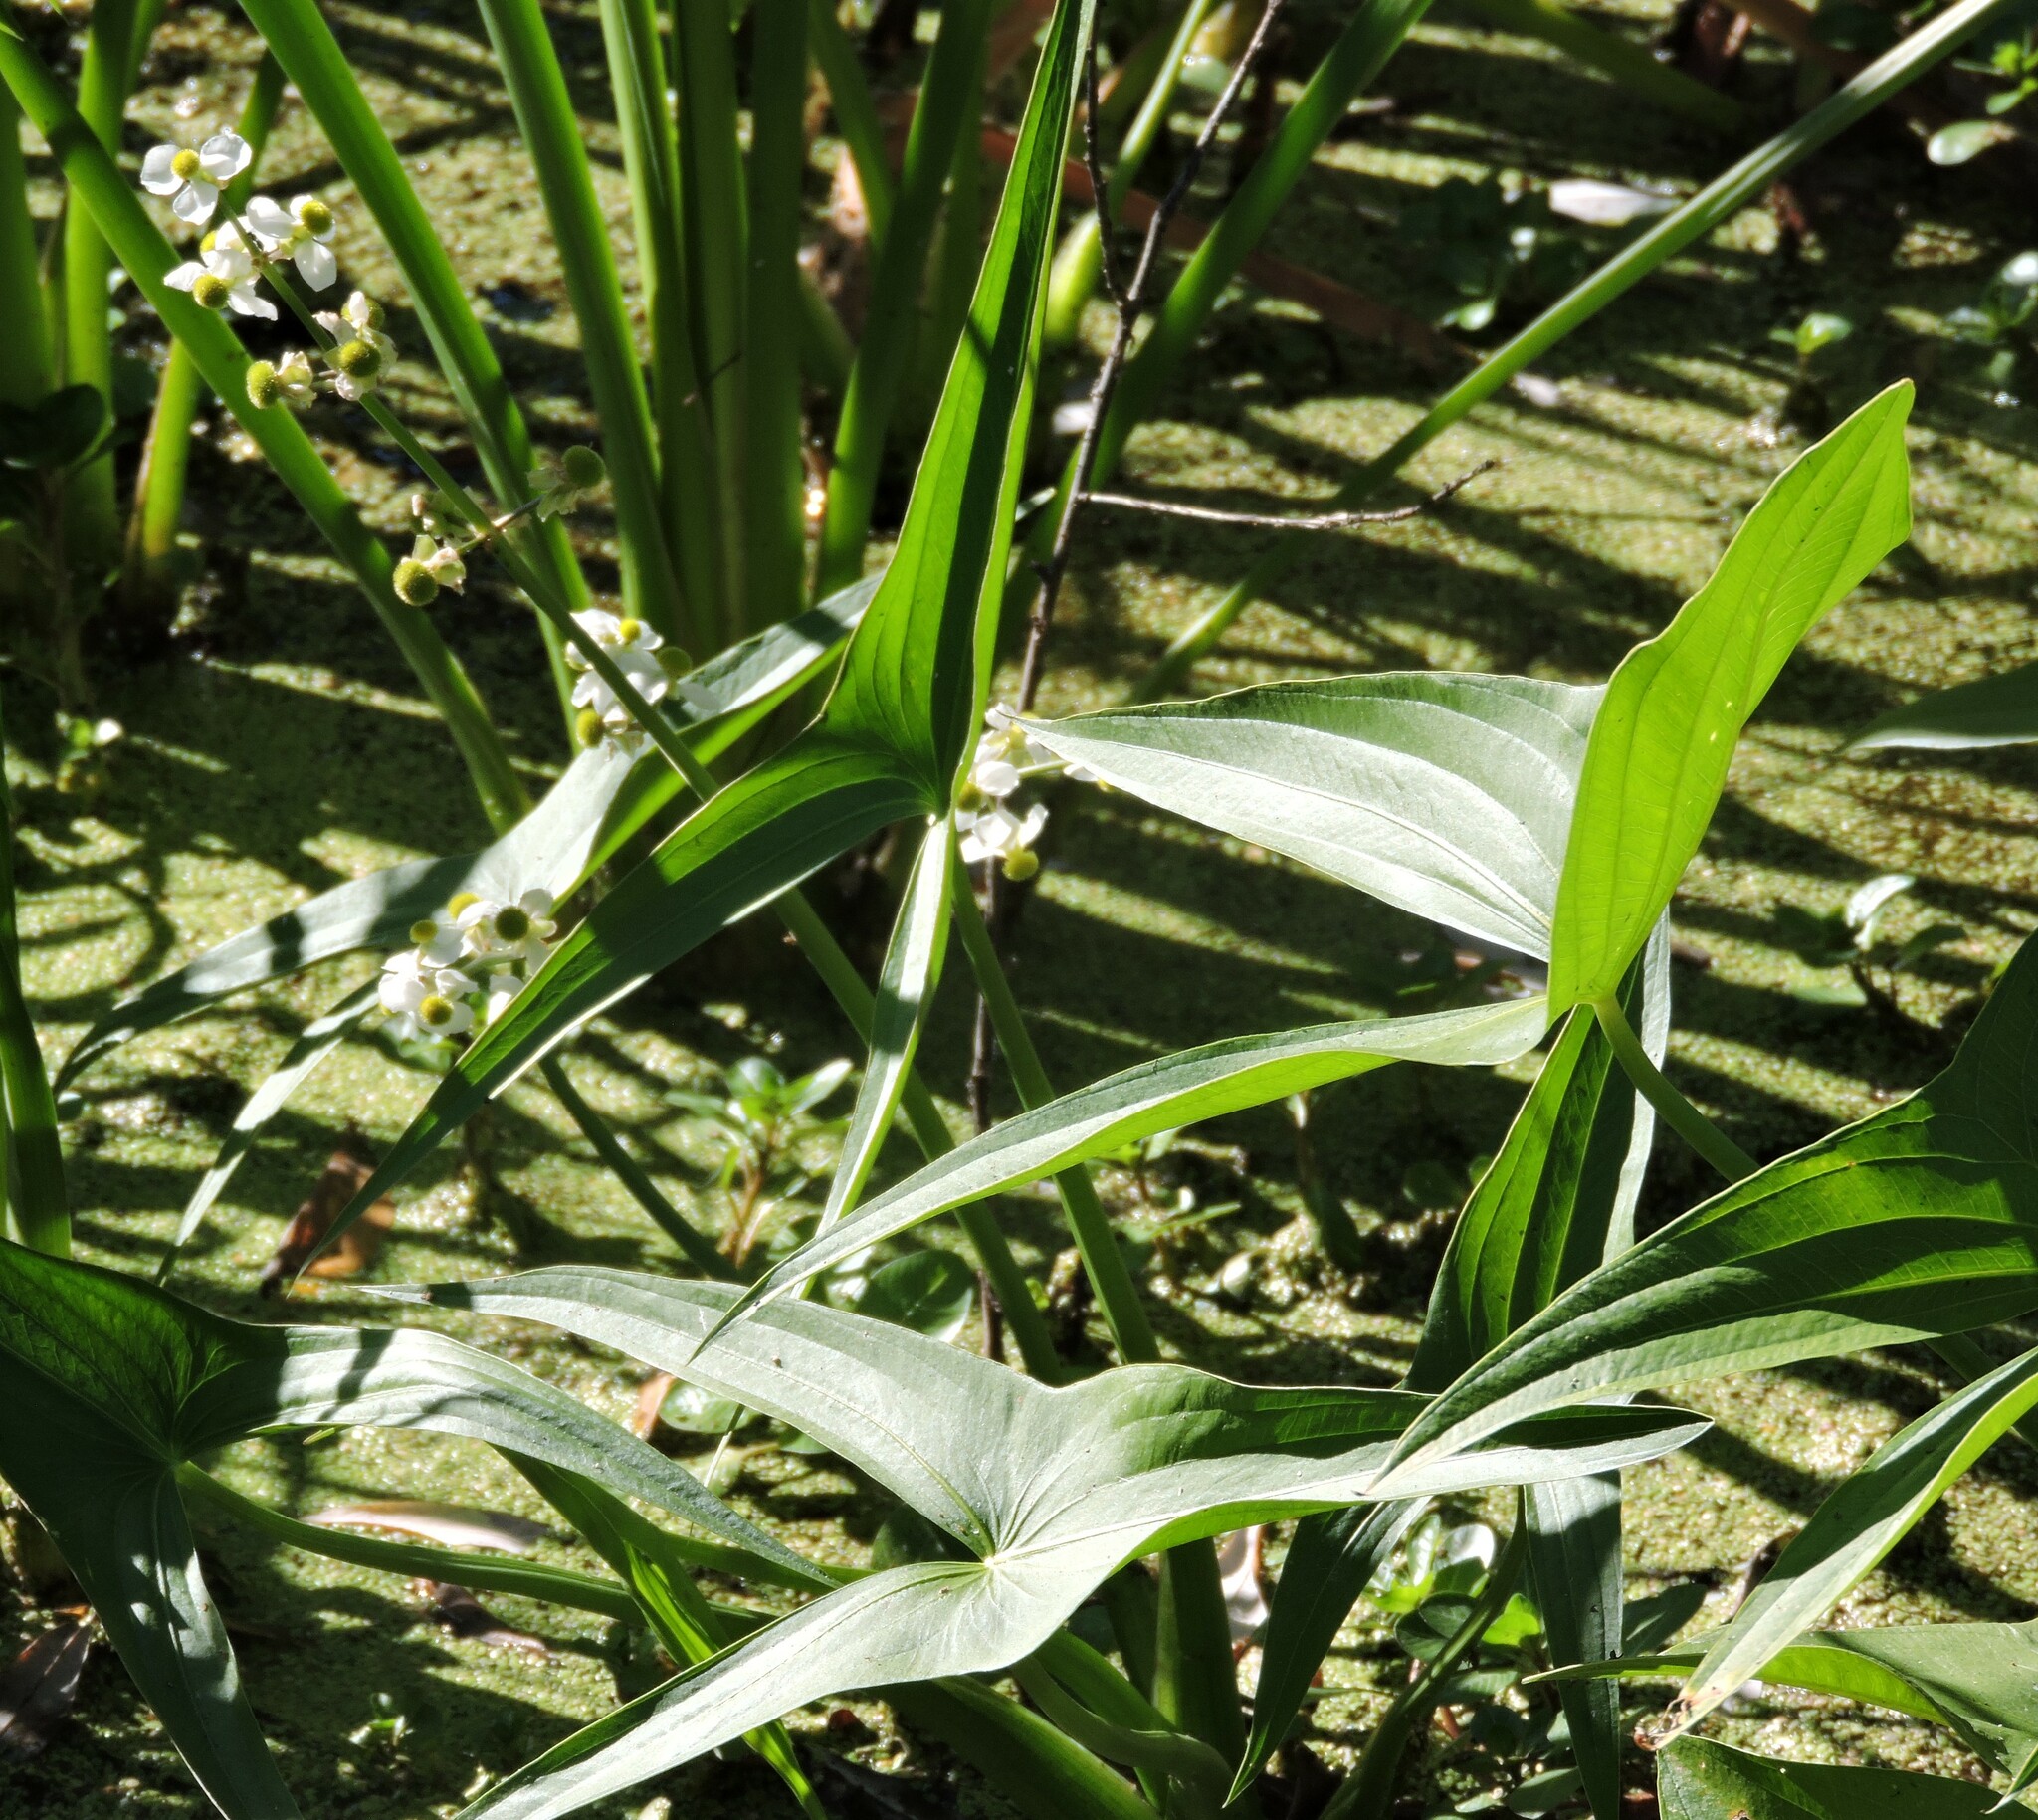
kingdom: Plantae
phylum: Tracheophyta
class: Liliopsida
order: Alismatales
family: Alismataceae
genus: Sagittaria
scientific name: Sagittaria latifolia
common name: Duck-potato
